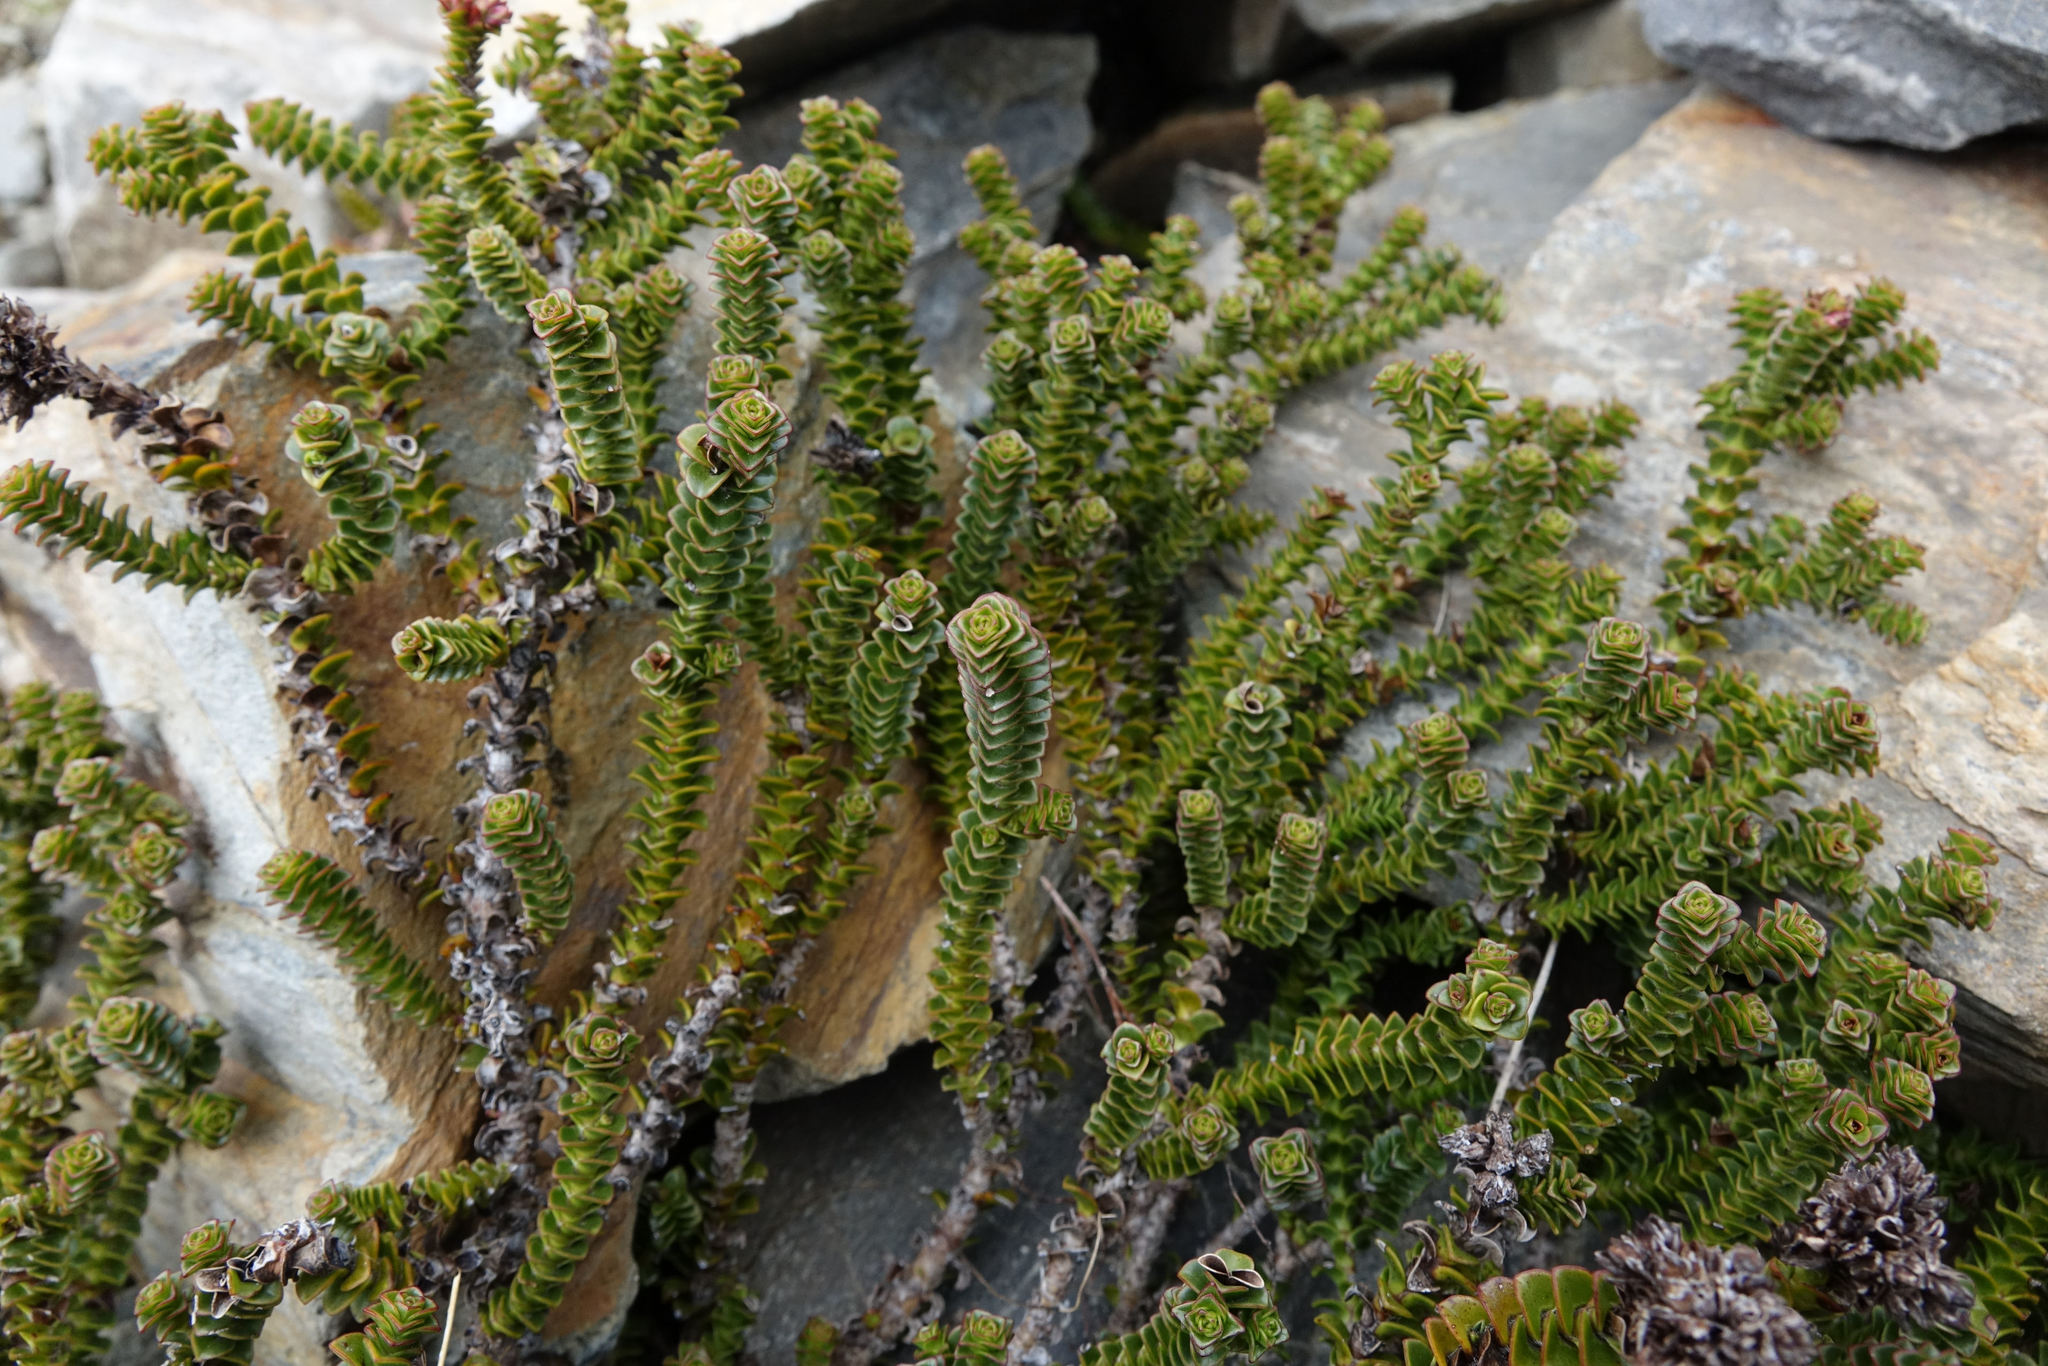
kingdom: Plantae
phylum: Tracheophyta
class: Magnoliopsida
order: Lamiales
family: Plantaginaceae
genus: Veronica
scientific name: Veronica epacridea
